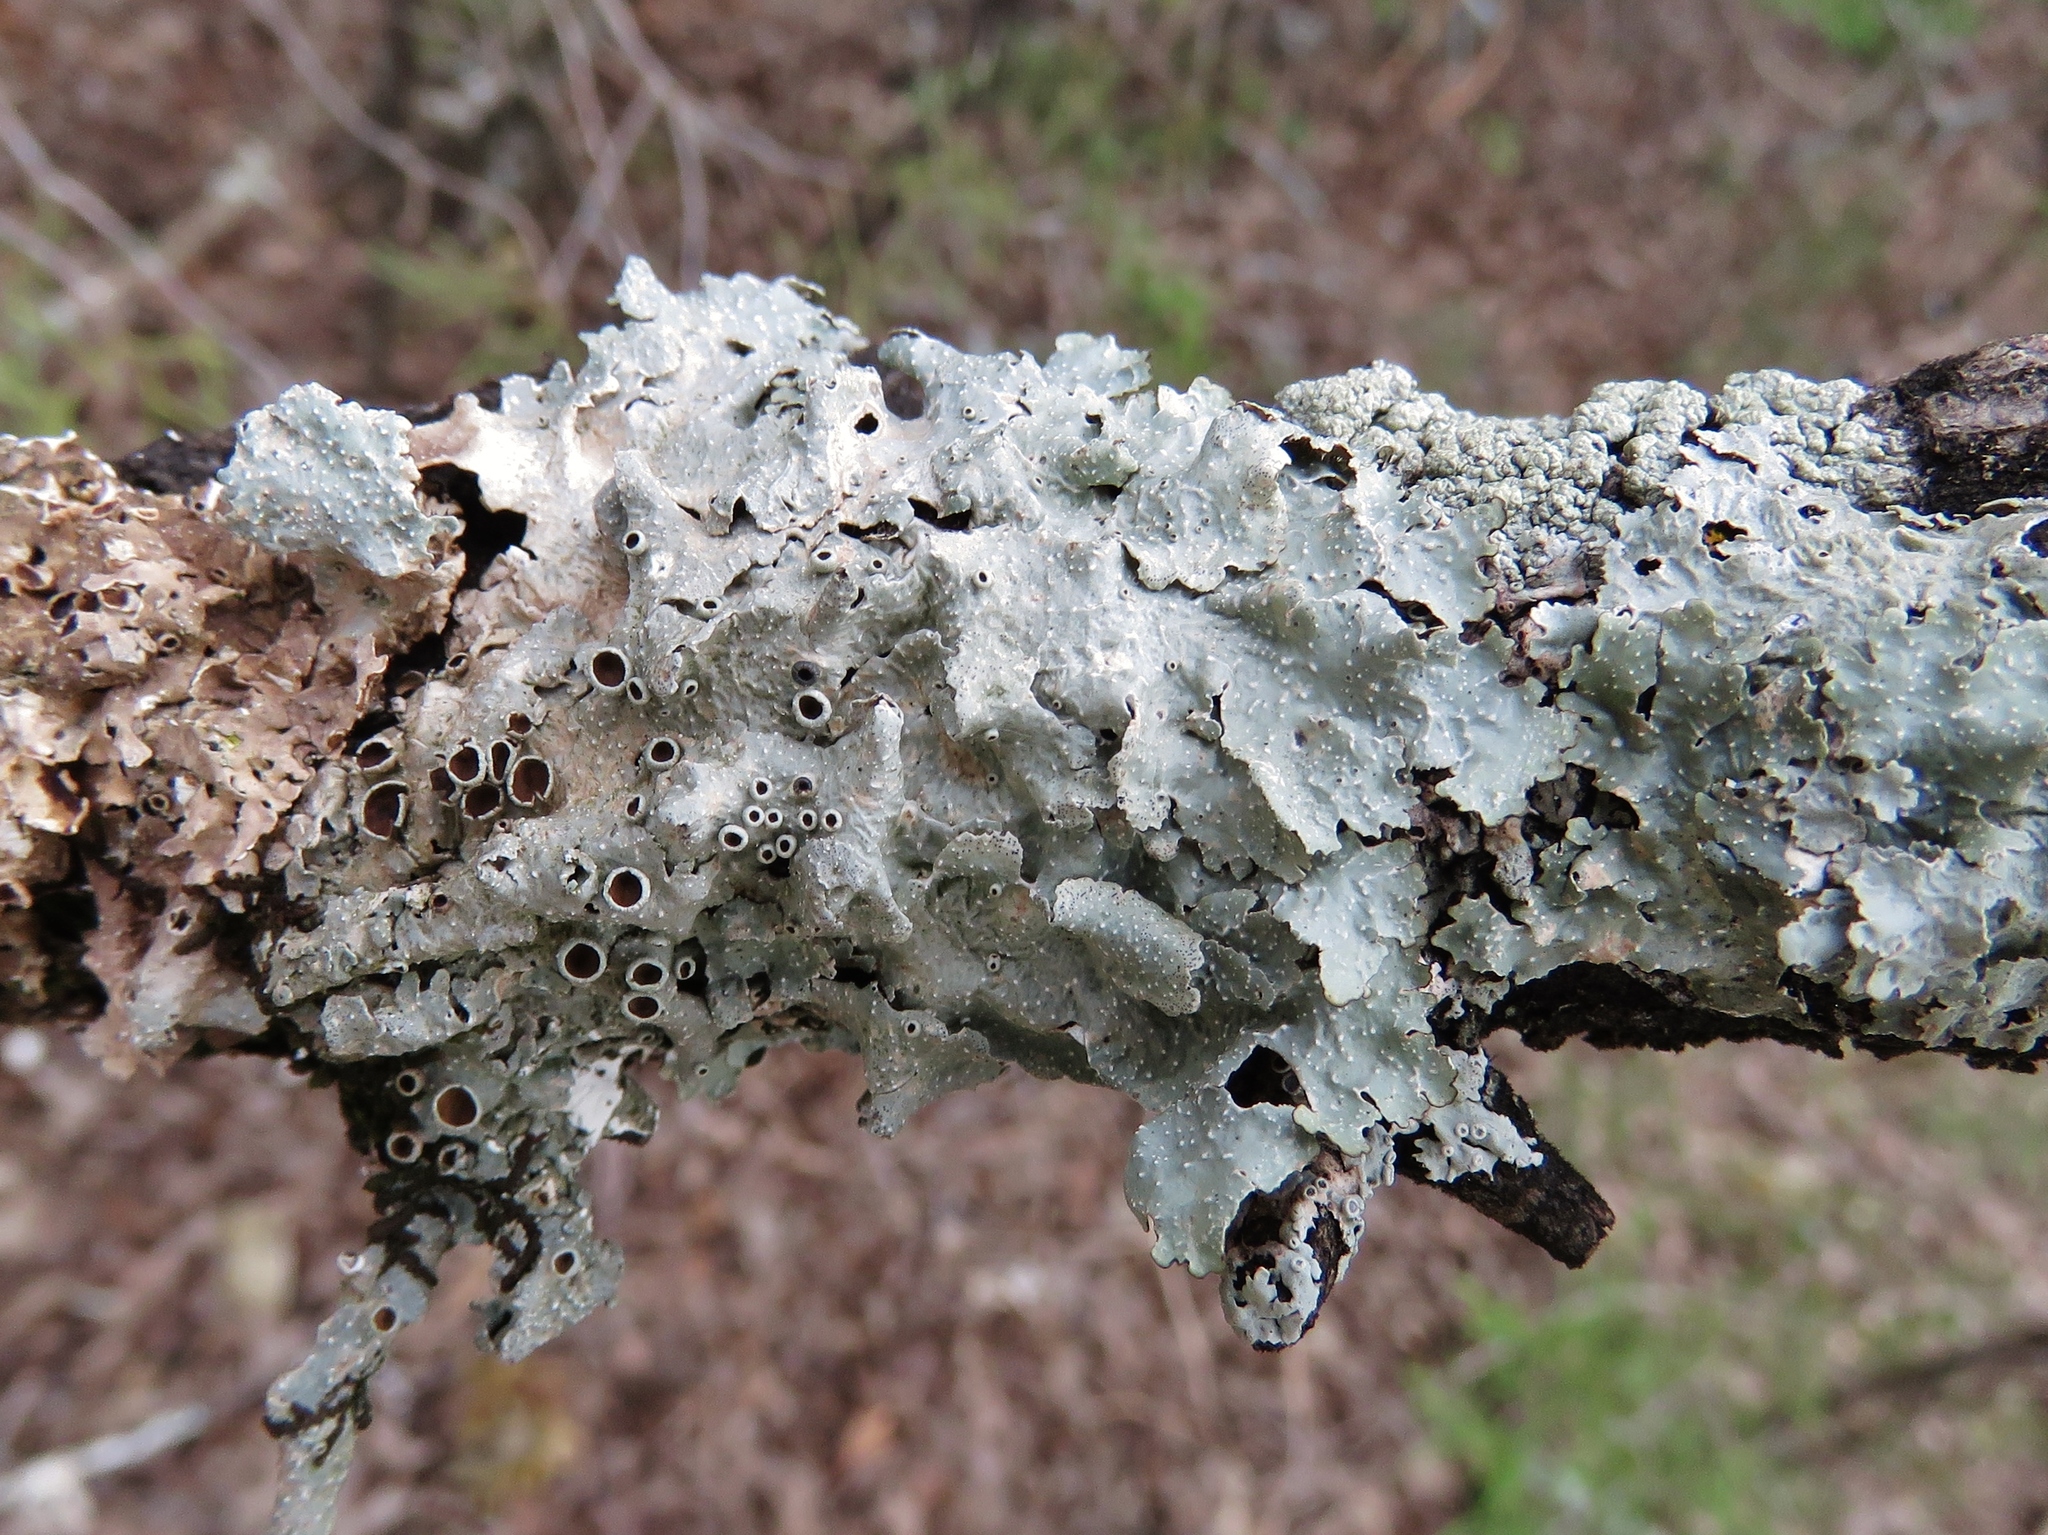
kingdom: Fungi
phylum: Ascomycota
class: Lecanoromycetes
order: Lecanorales
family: Parmeliaceae
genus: Punctelia
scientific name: Punctelia bolliana
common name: Eastern speckled shield lichen
